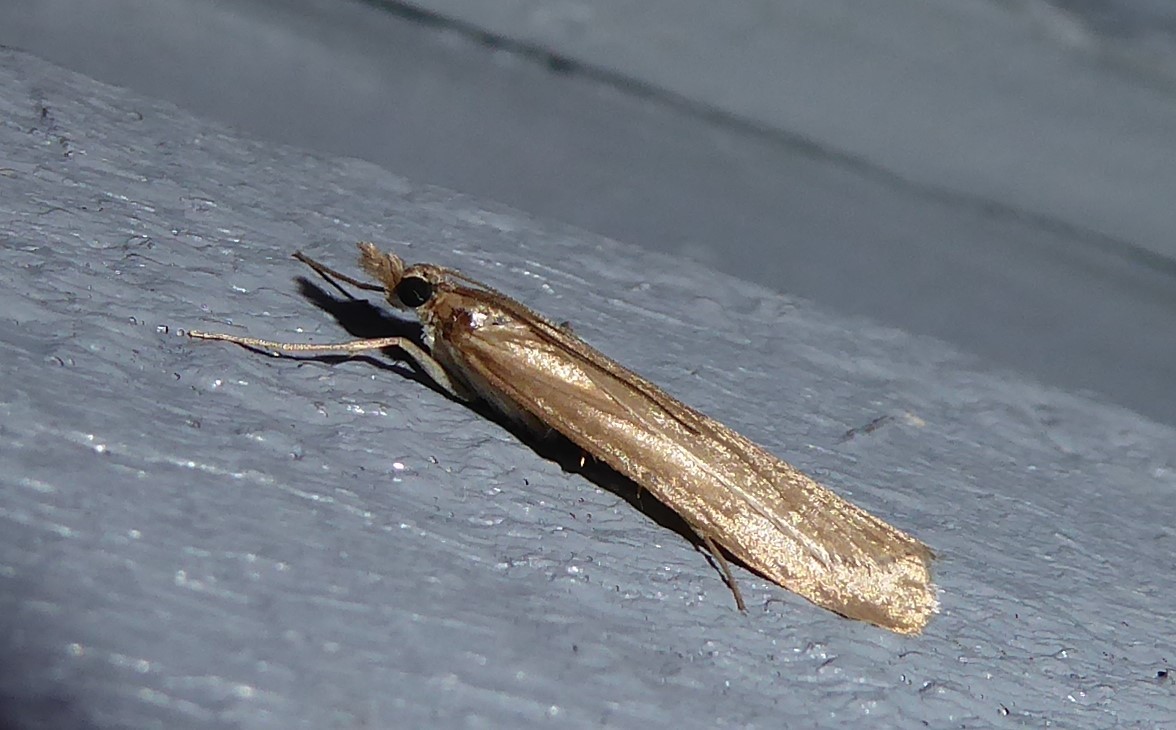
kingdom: Animalia
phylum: Arthropoda
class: Insecta
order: Lepidoptera
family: Crambidae
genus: Scoparia
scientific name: Scoparia augastis
